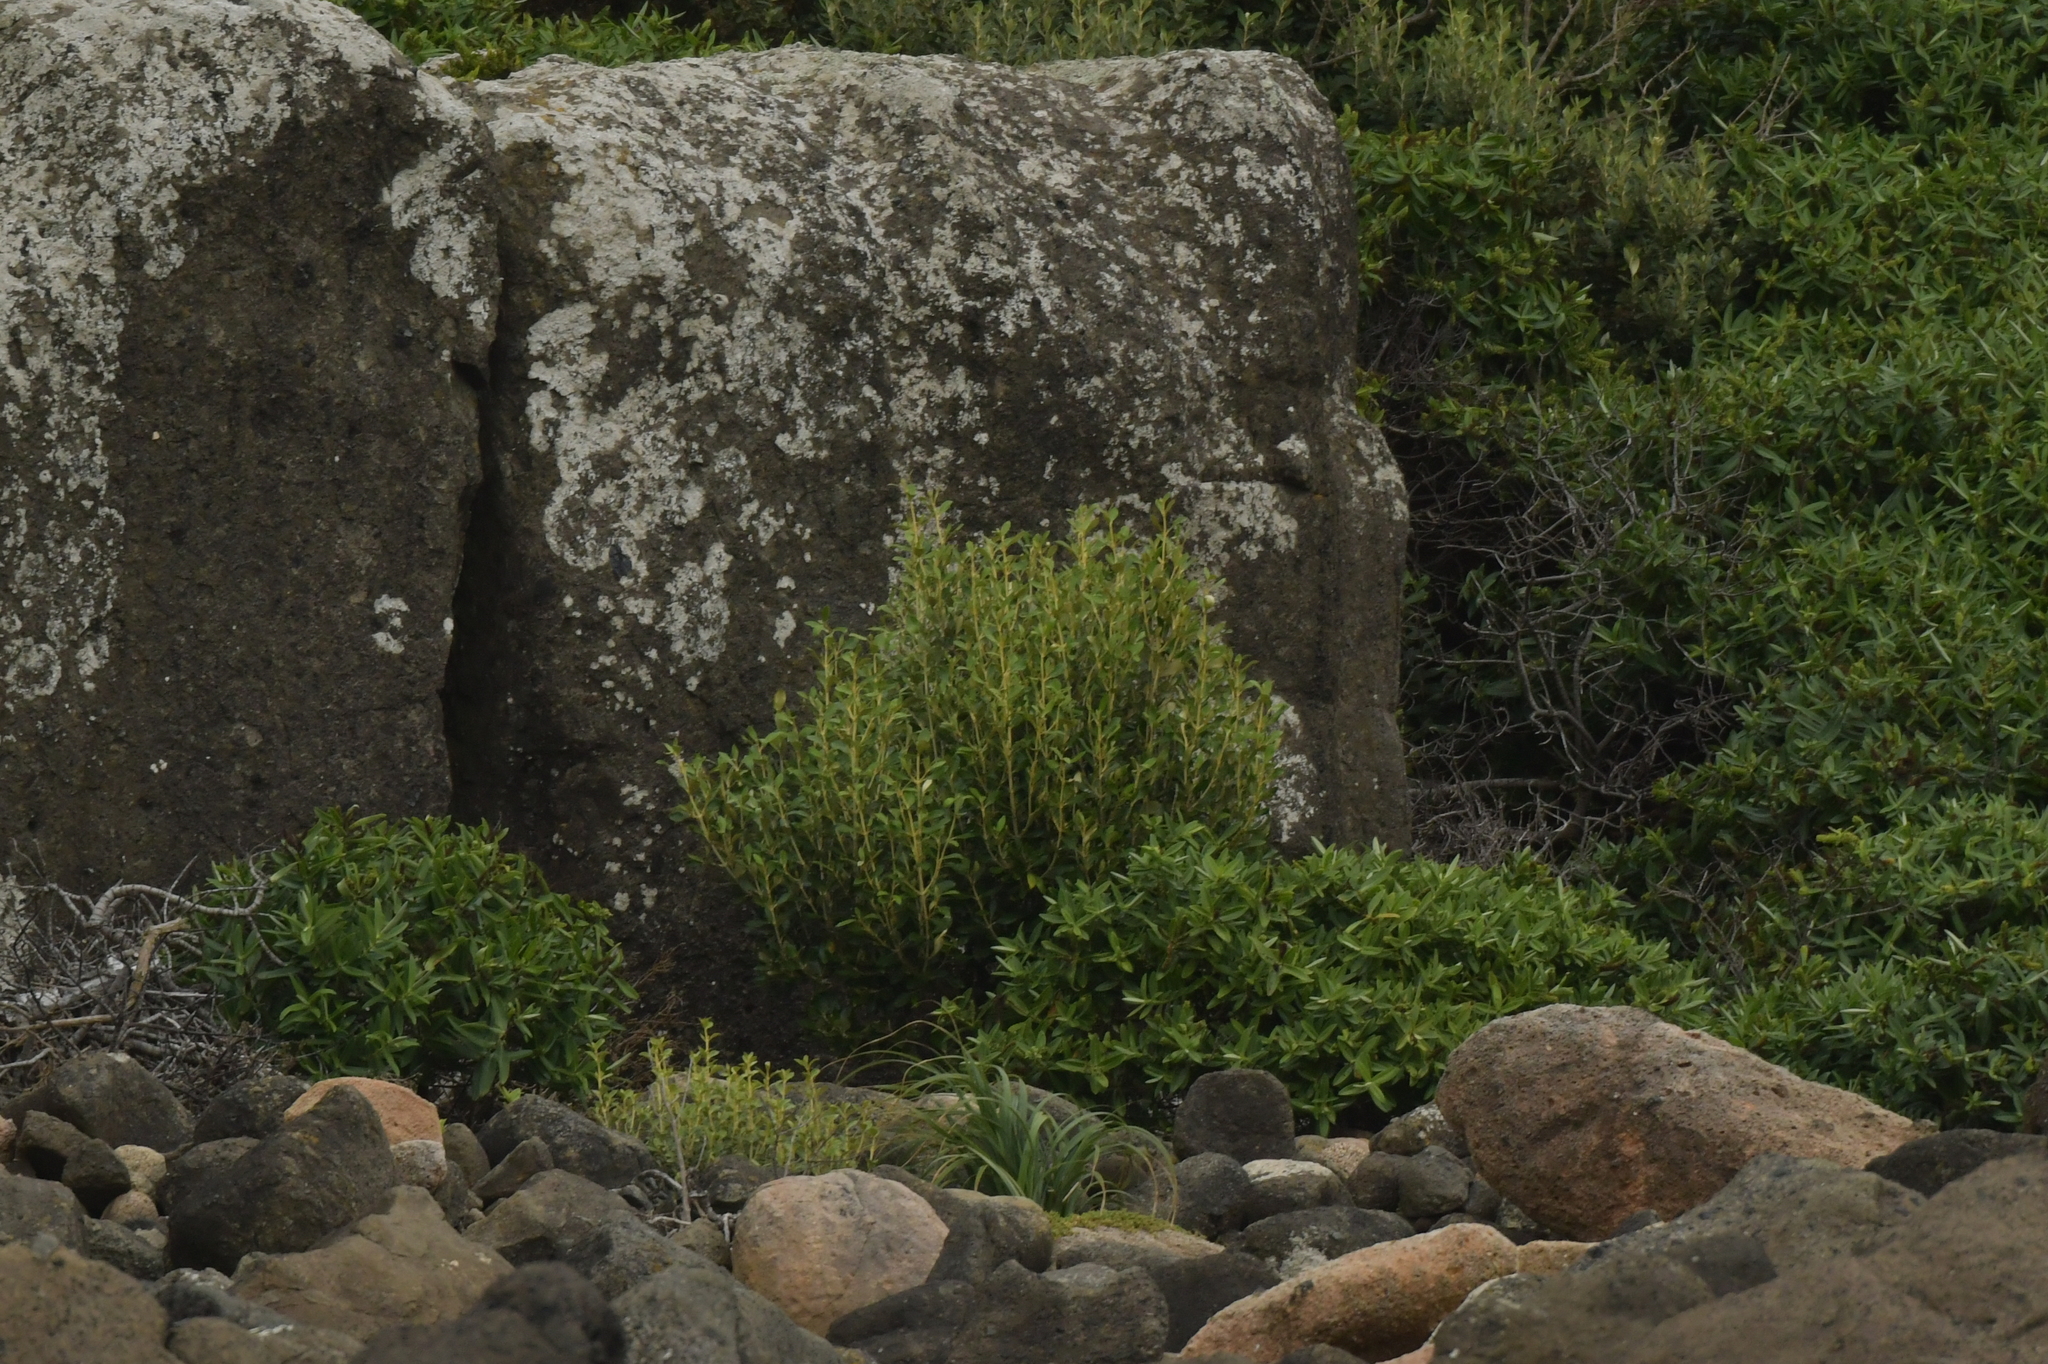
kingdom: Plantae
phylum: Tracheophyta
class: Magnoliopsida
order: Gentianales
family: Rubiaceae
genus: Coprosma
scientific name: Coprosma chathamica
